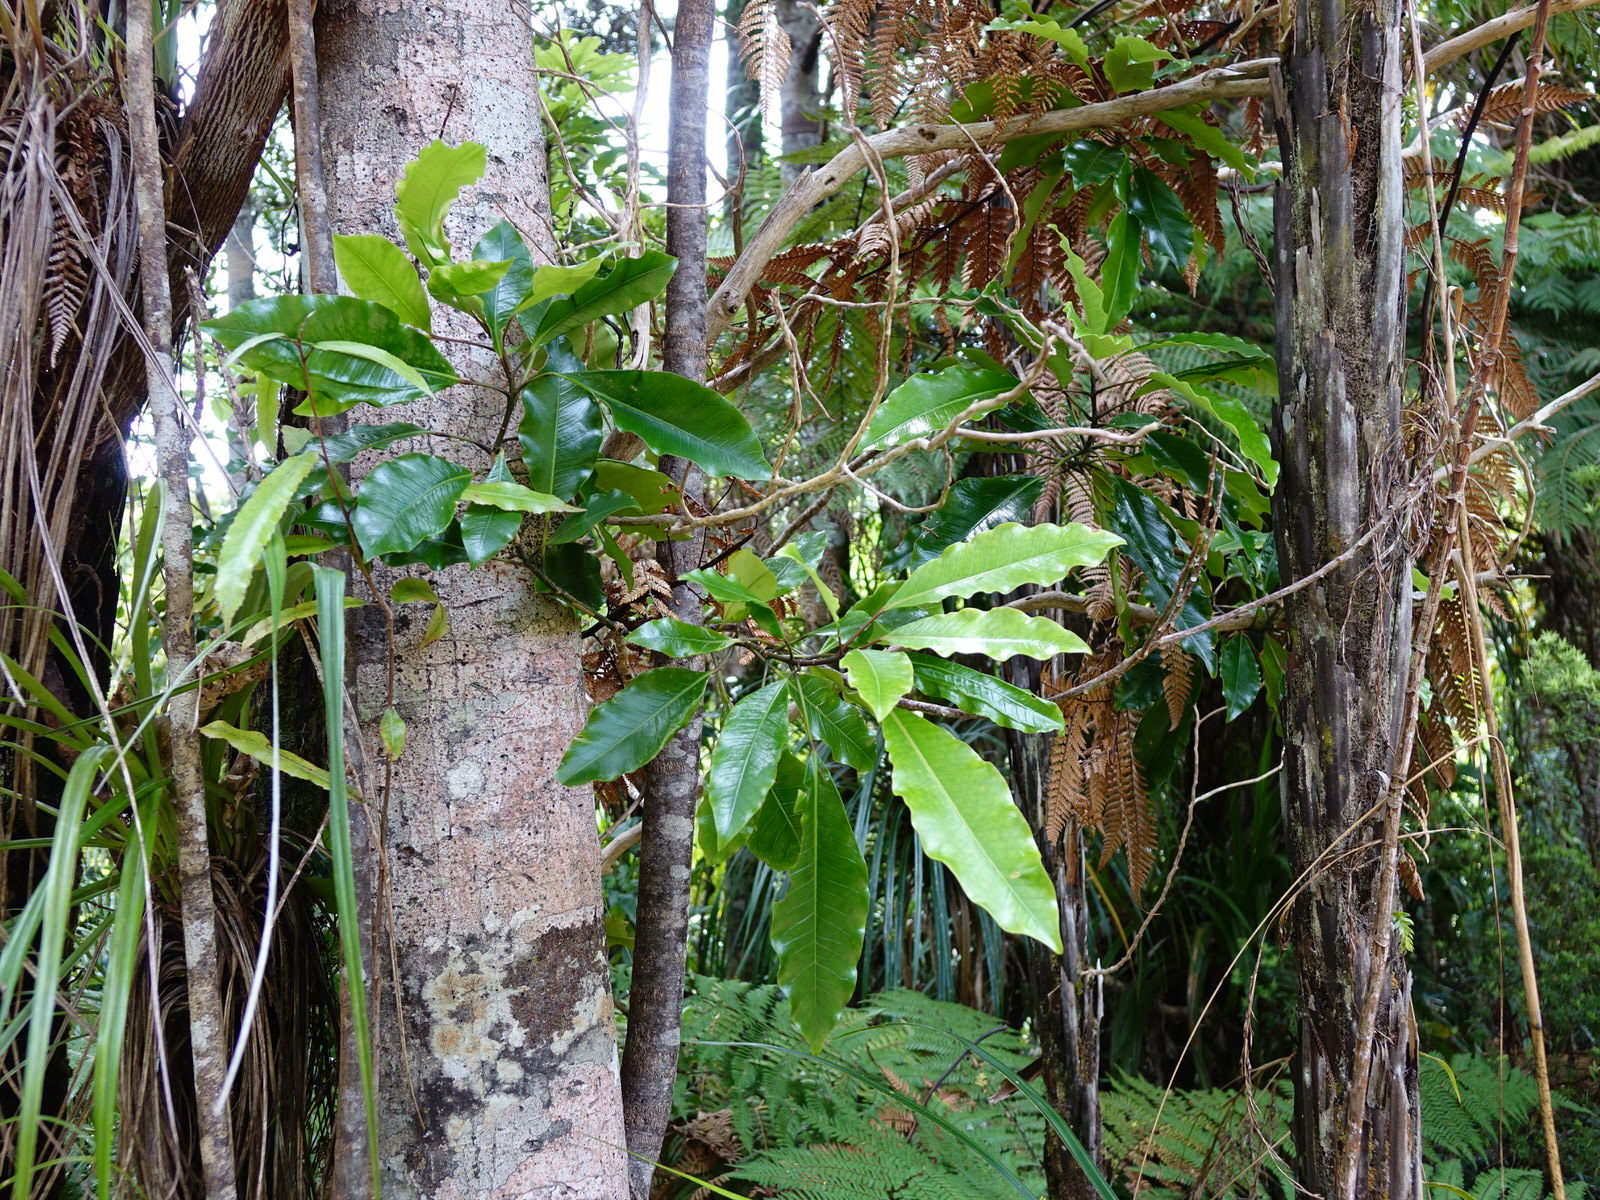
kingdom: Plantae
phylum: Tracheophyta
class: Magnoliopsida
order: Apiales
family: Araliaceae
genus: Raukaua
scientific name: Raukaua edgerleyi
